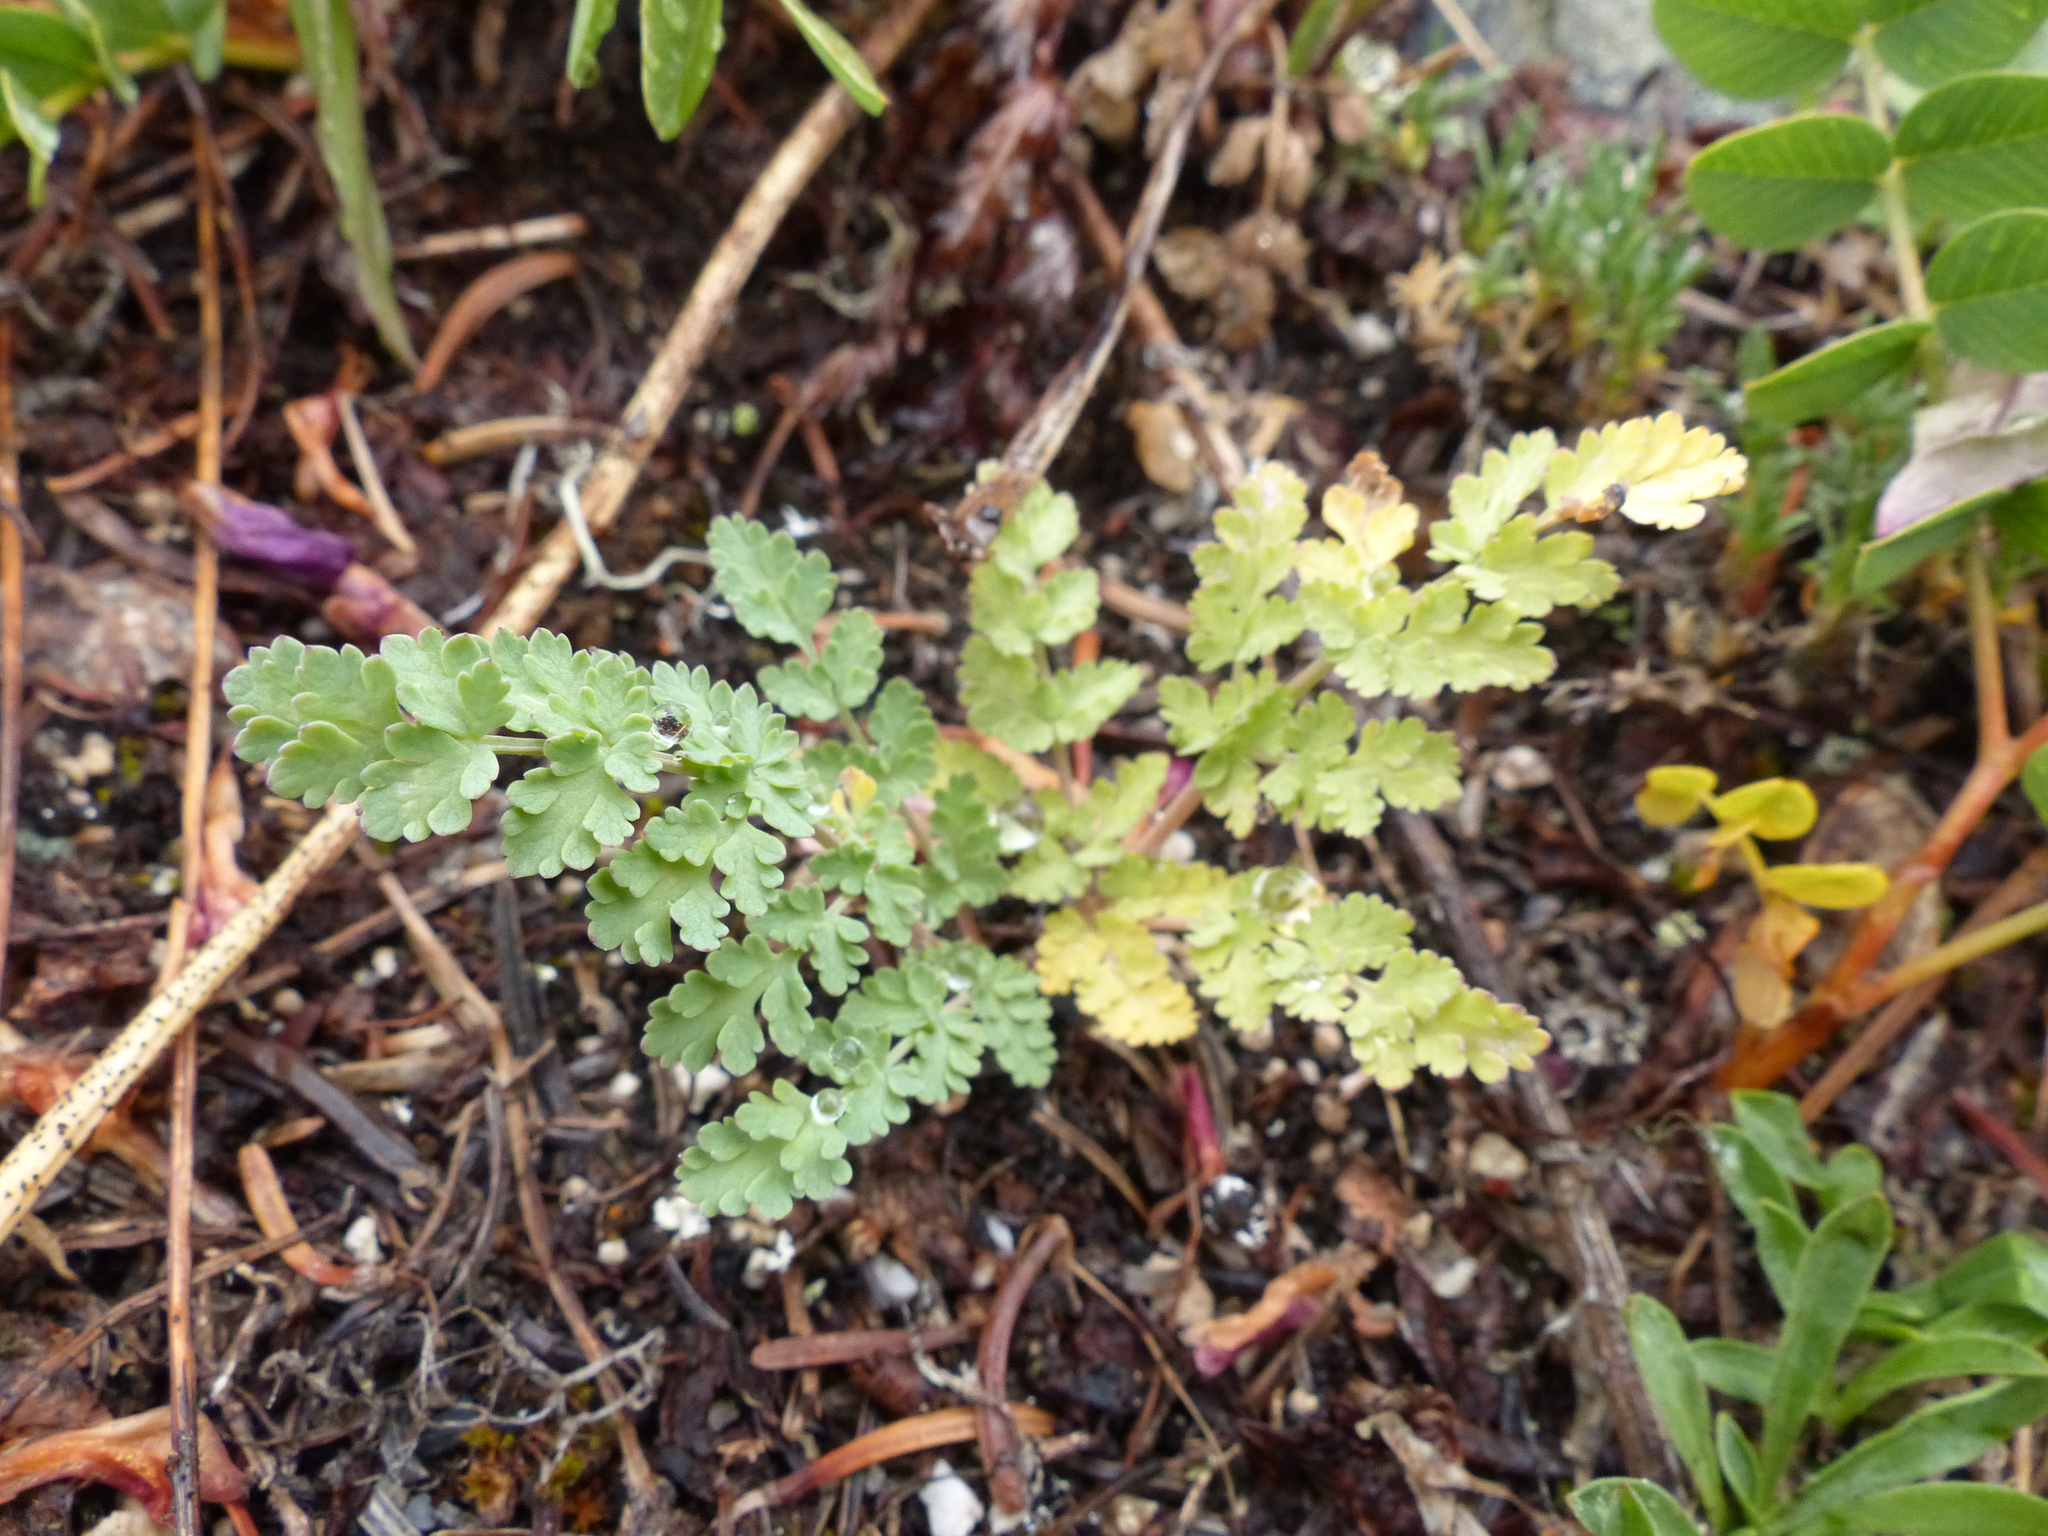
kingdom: Plantae
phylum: Tracheophyta
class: Magnoliopsida
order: Apiales
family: Apiaceae
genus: Lomatium
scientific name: Lomatium martindalei
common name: Cascade desert-parsley
